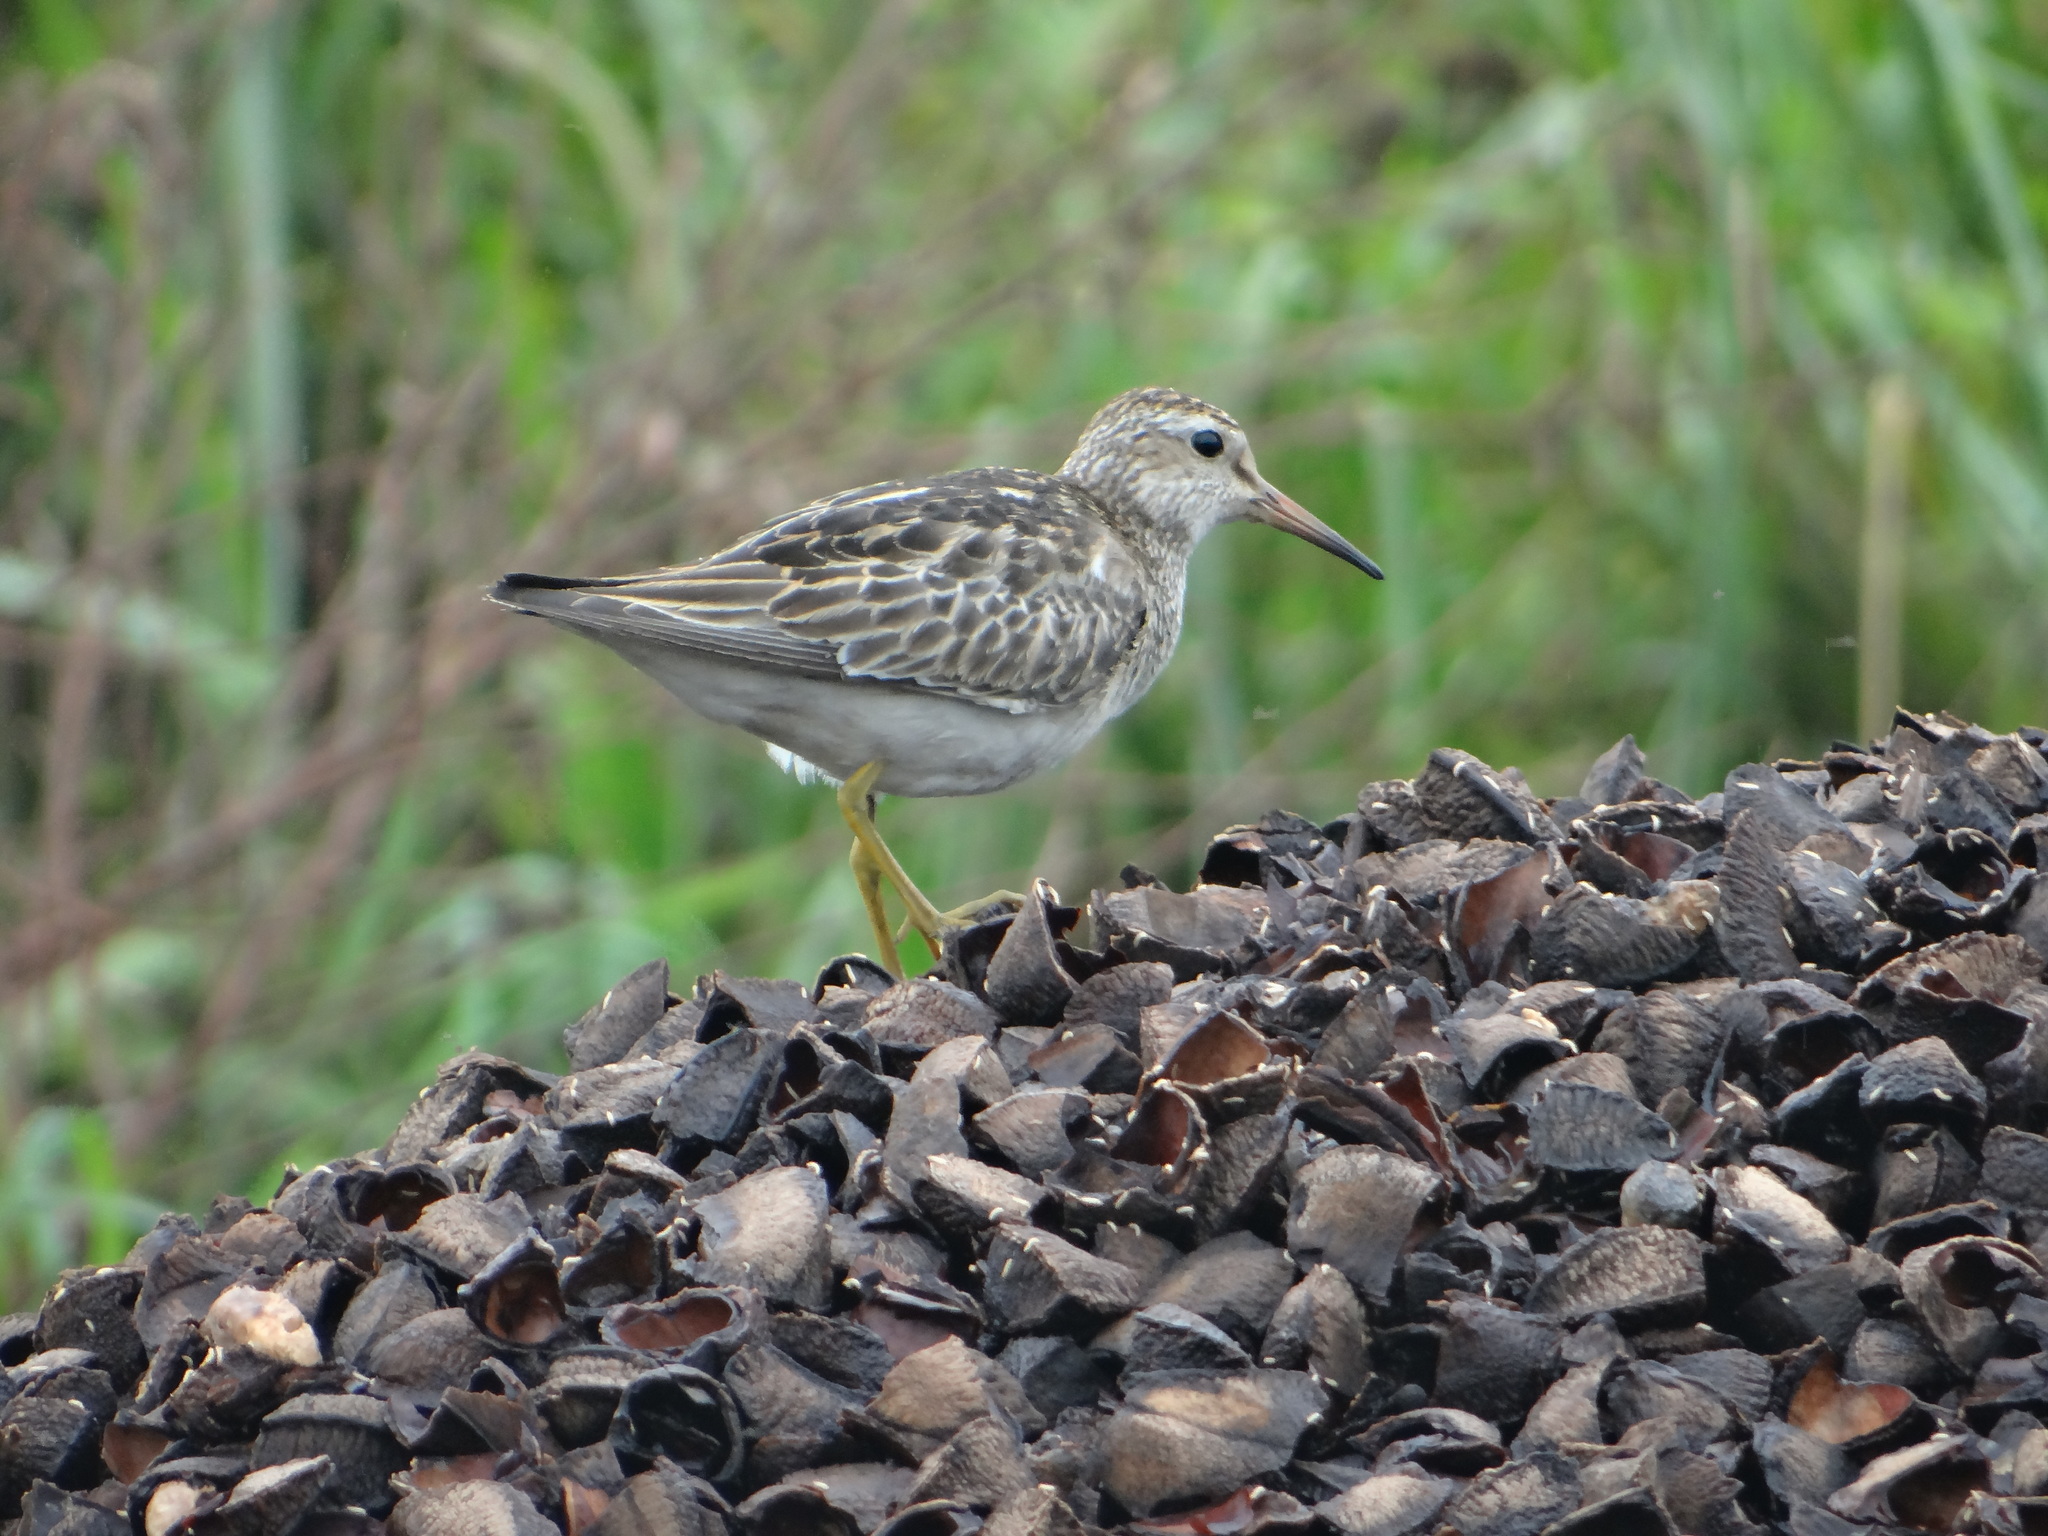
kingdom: Animalia
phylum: Chordata
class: Aves
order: Charadriiformes
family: Scolopacidae
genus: Calidris
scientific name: Calidris melanotos
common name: Pectoral sandpiper
